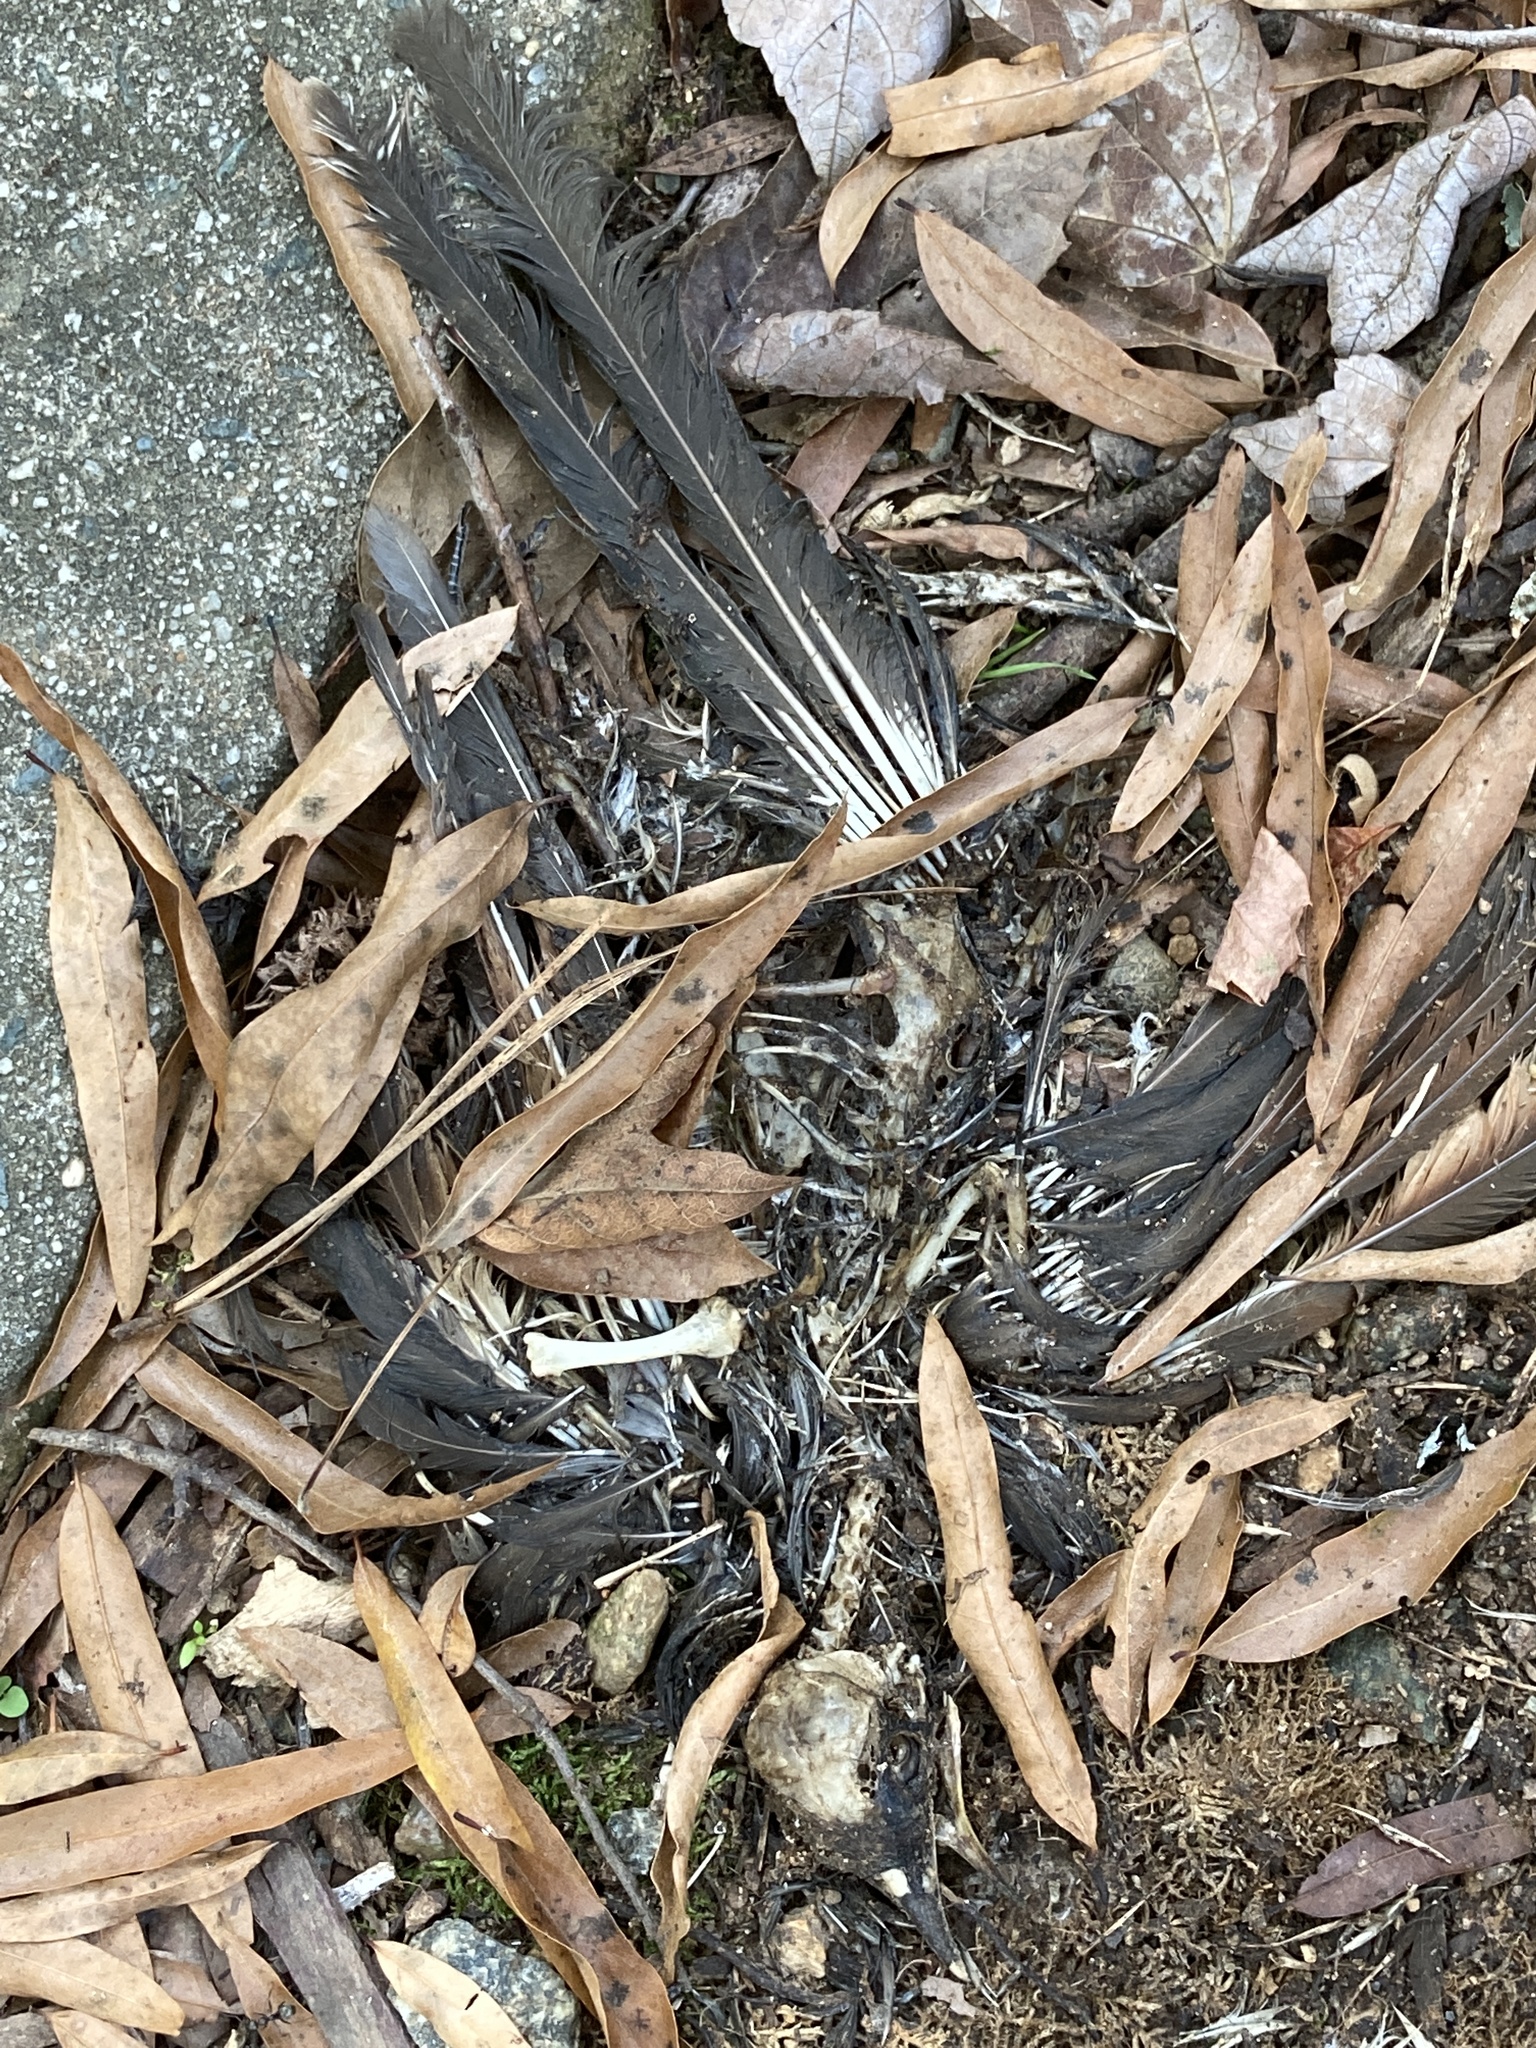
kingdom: Animalia
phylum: Chordata
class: Aves
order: Passeriformes
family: Turdidae
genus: Turdus
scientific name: Turdus migratorius
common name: American robin
